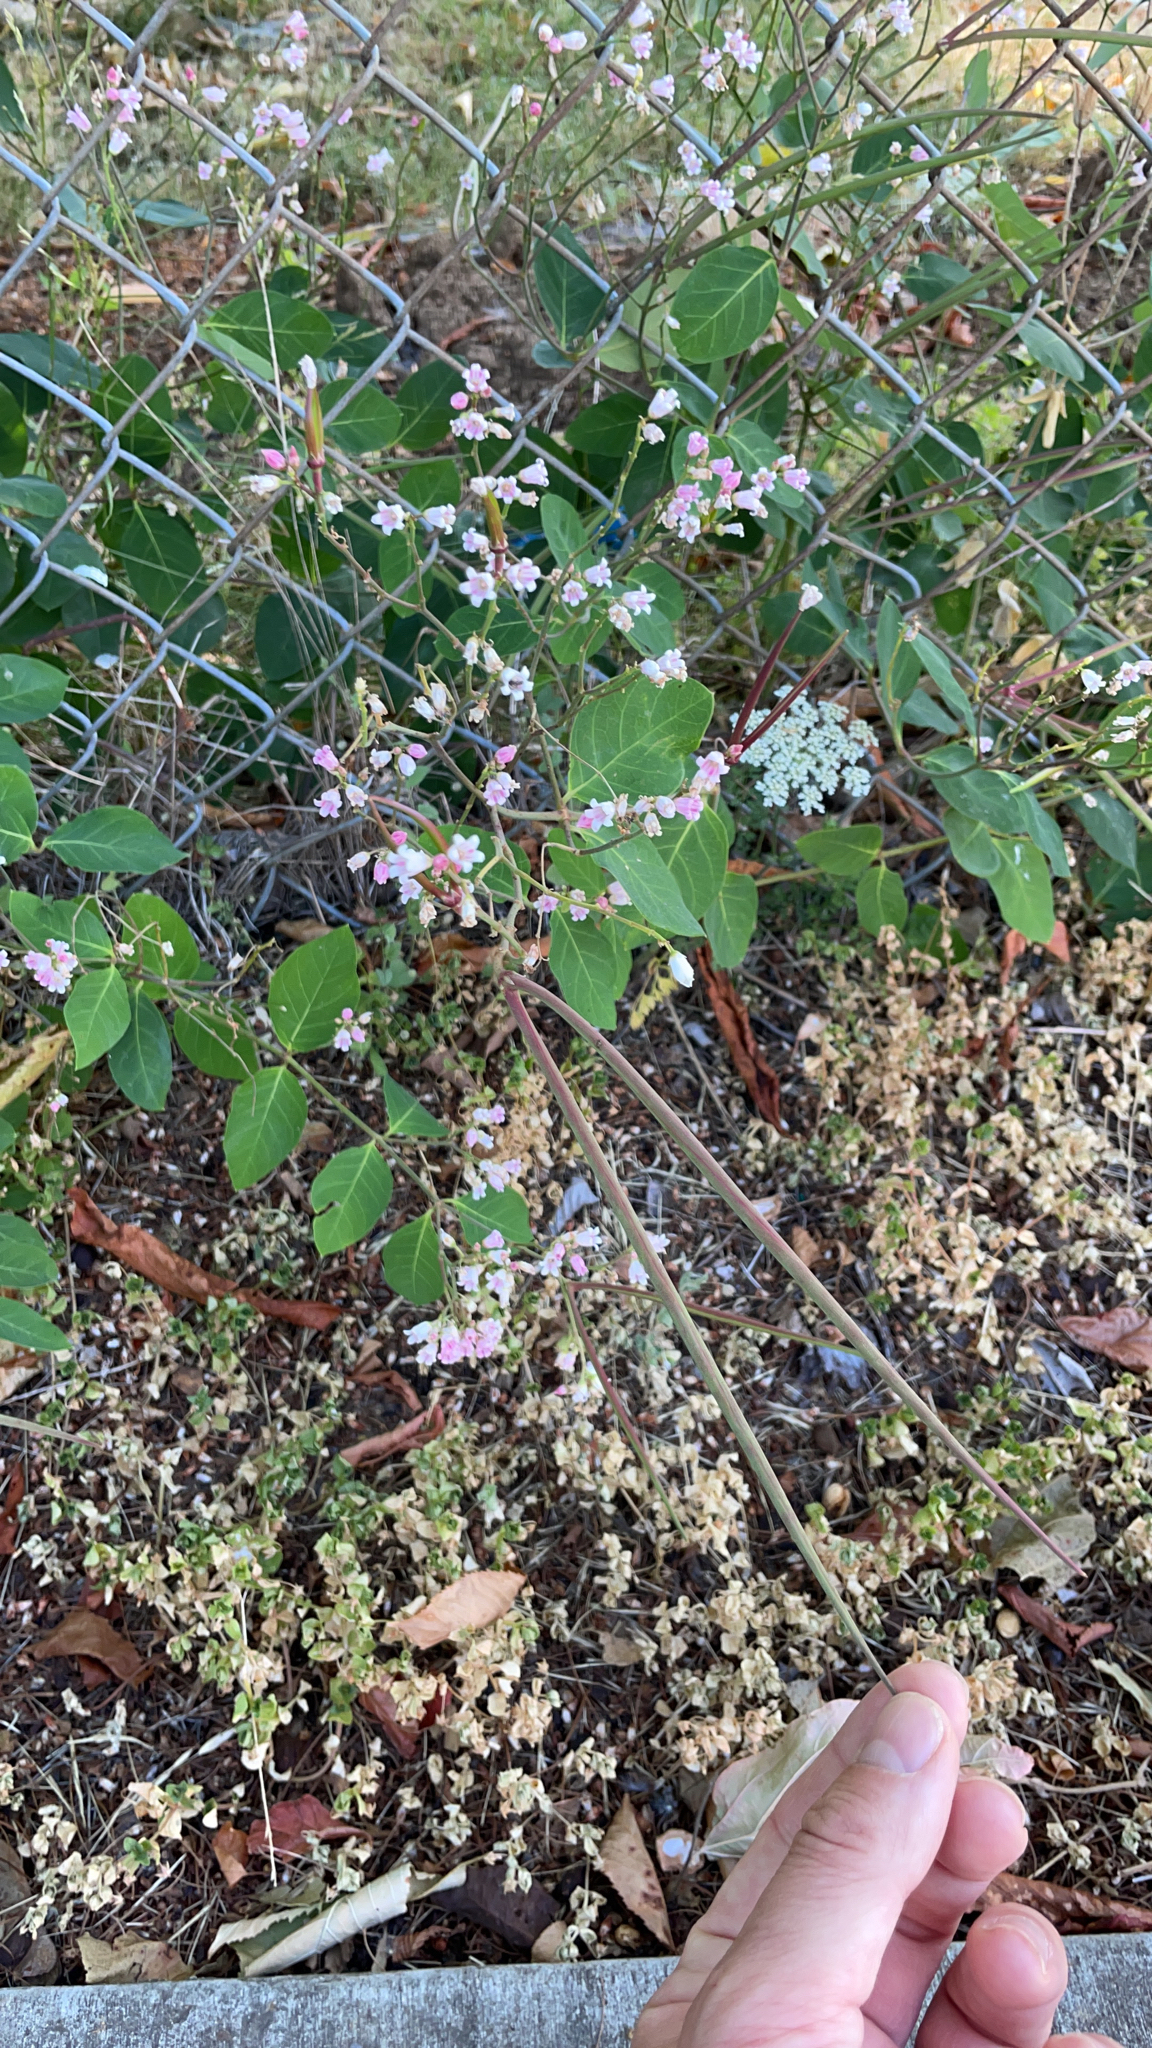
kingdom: Plantae
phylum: Tracheophyta
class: Magnoliopsida
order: Gentianales
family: Apocynaceae
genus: Apocynum
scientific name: Apocynum androsaemifolium
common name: Spreading dogbane
